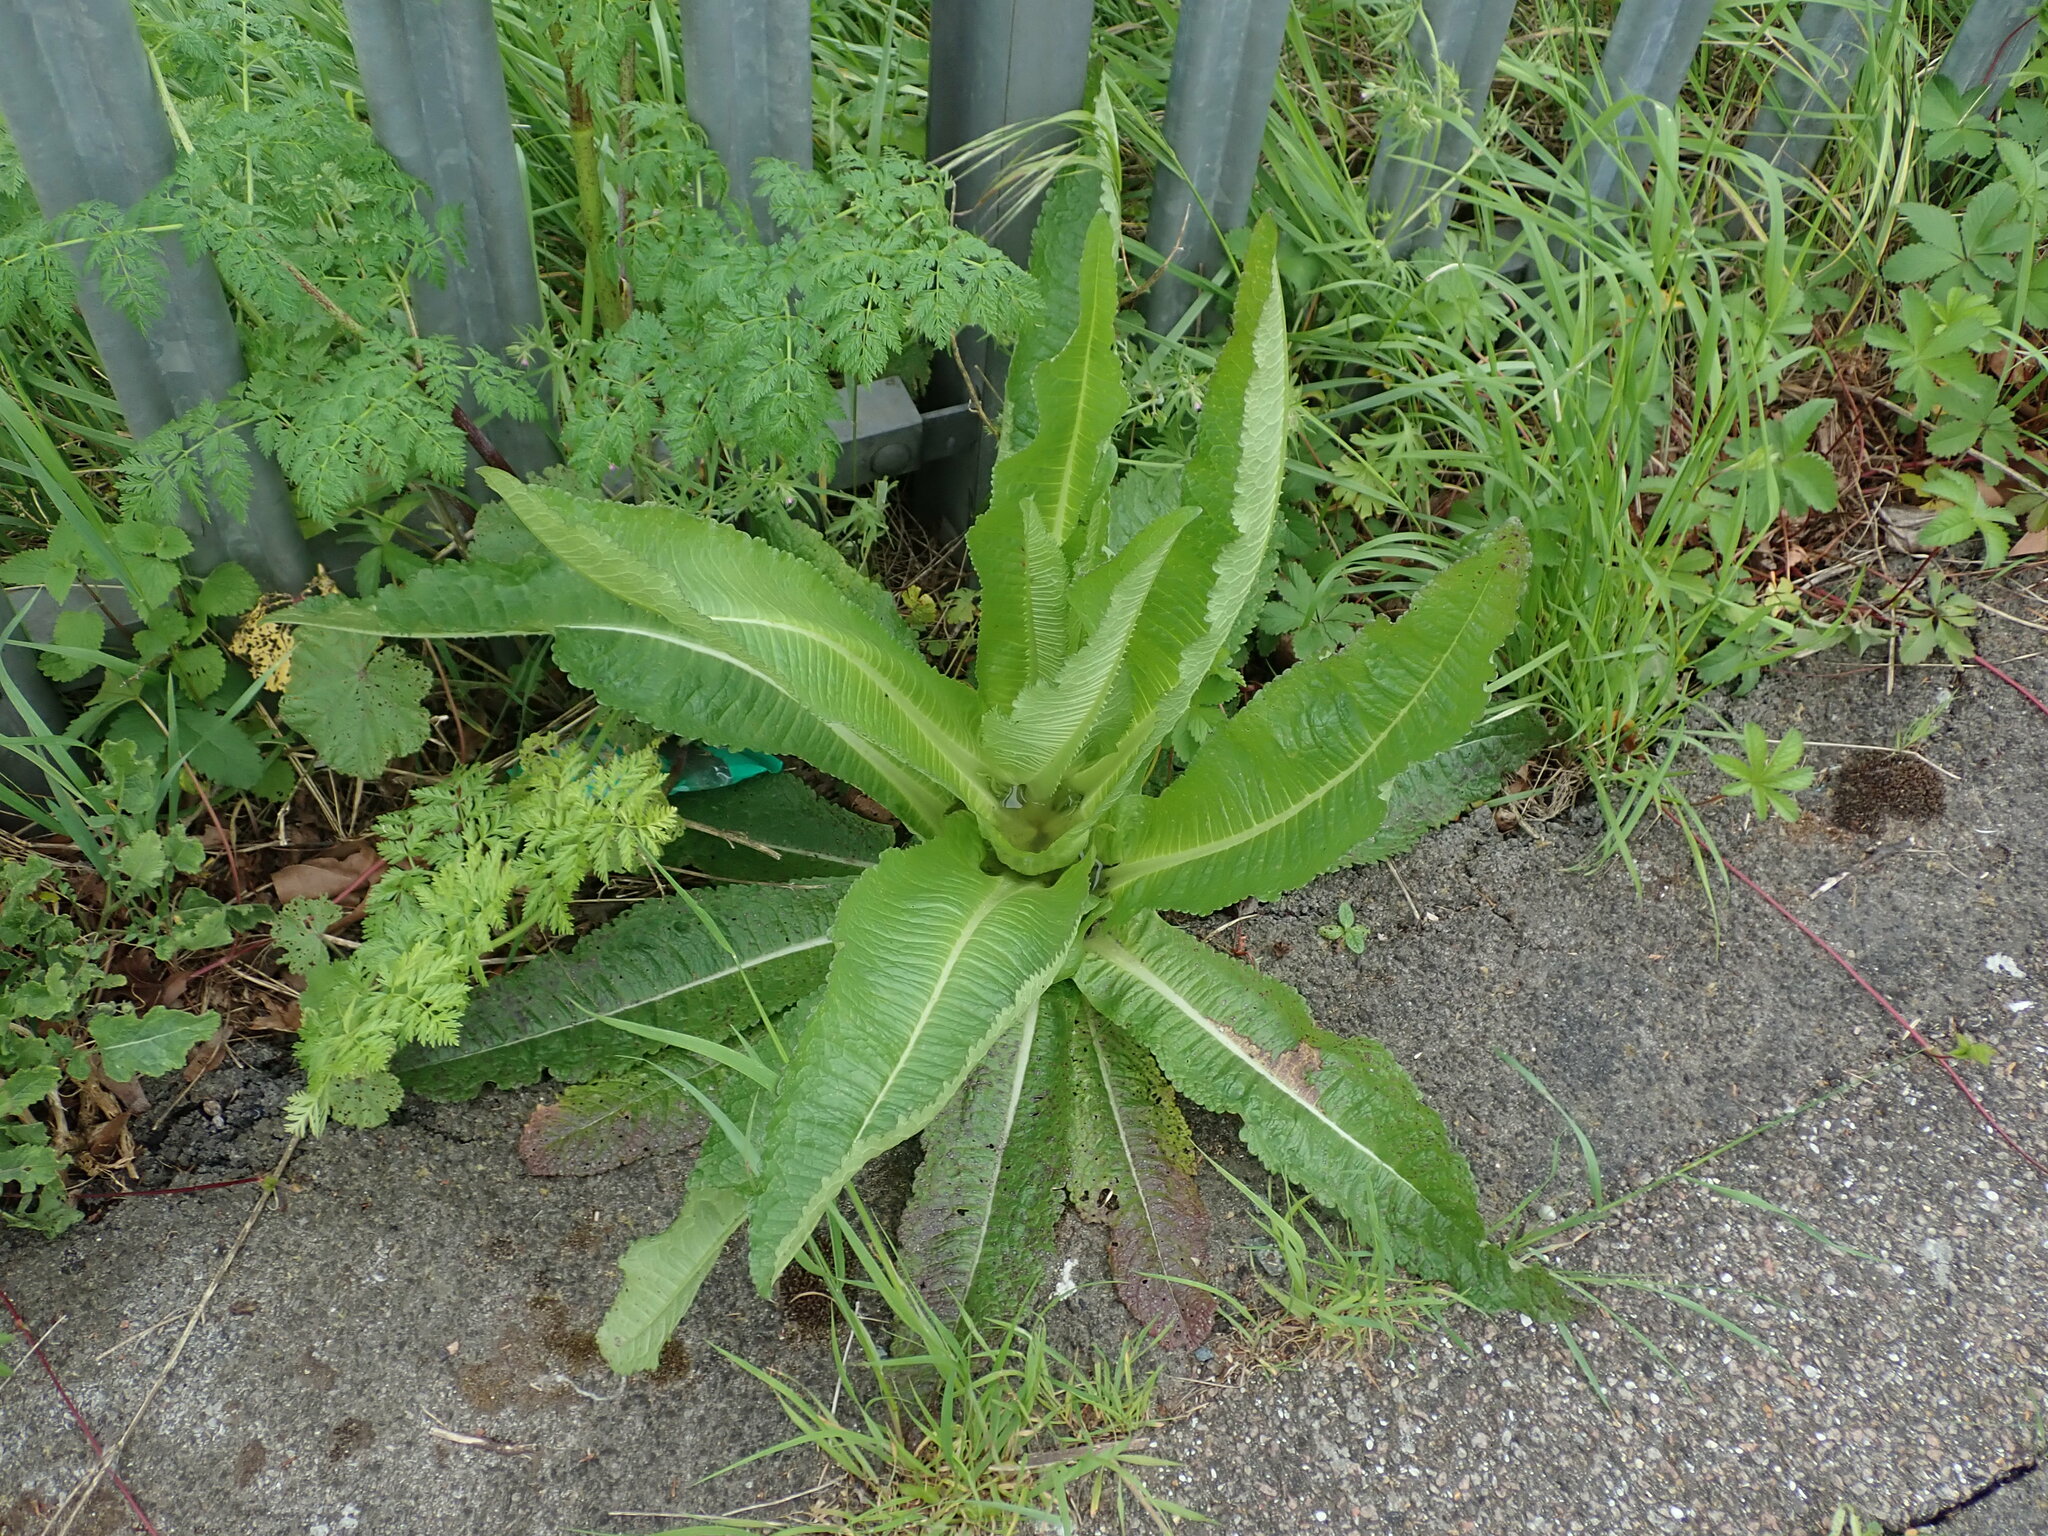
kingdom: Plantae
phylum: Tracheophyta
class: Magnoliopsida
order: Dipsacales
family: Caprifoliaceae
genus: Dipsacus
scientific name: Dipsacus fullonum
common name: Teasel
